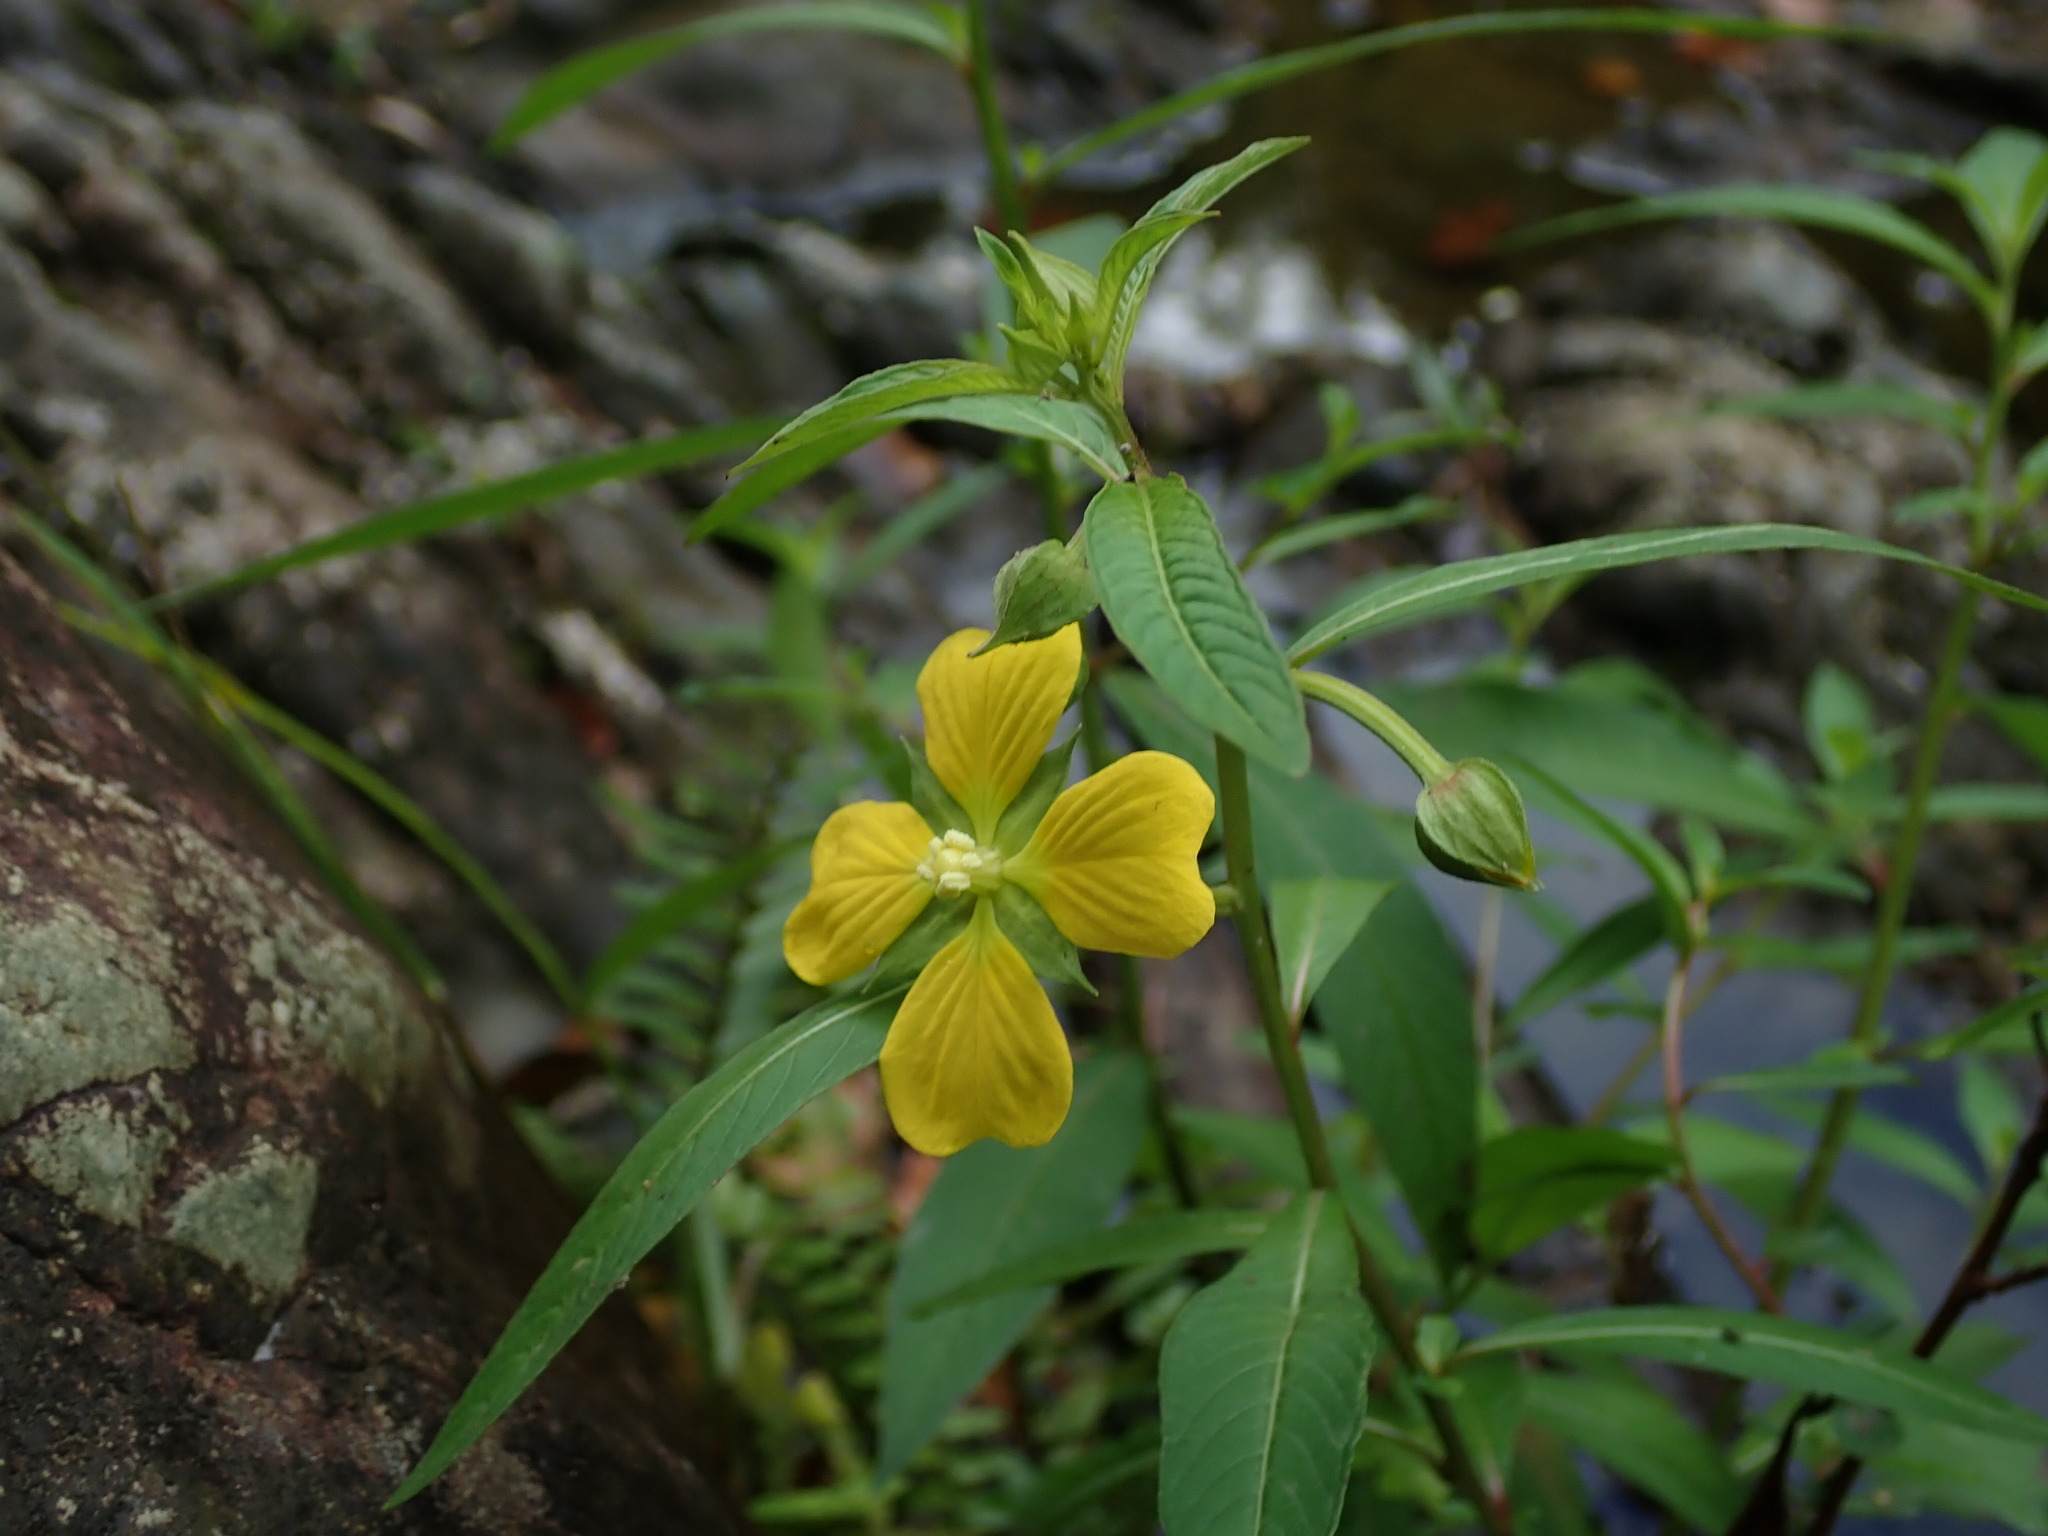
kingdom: Plantae
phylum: Tracheophyta
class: Magnoliopsida
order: Myrtales
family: Onagraceae
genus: Ludwigia
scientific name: Ludwigia octovalvis
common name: Water-primrose
